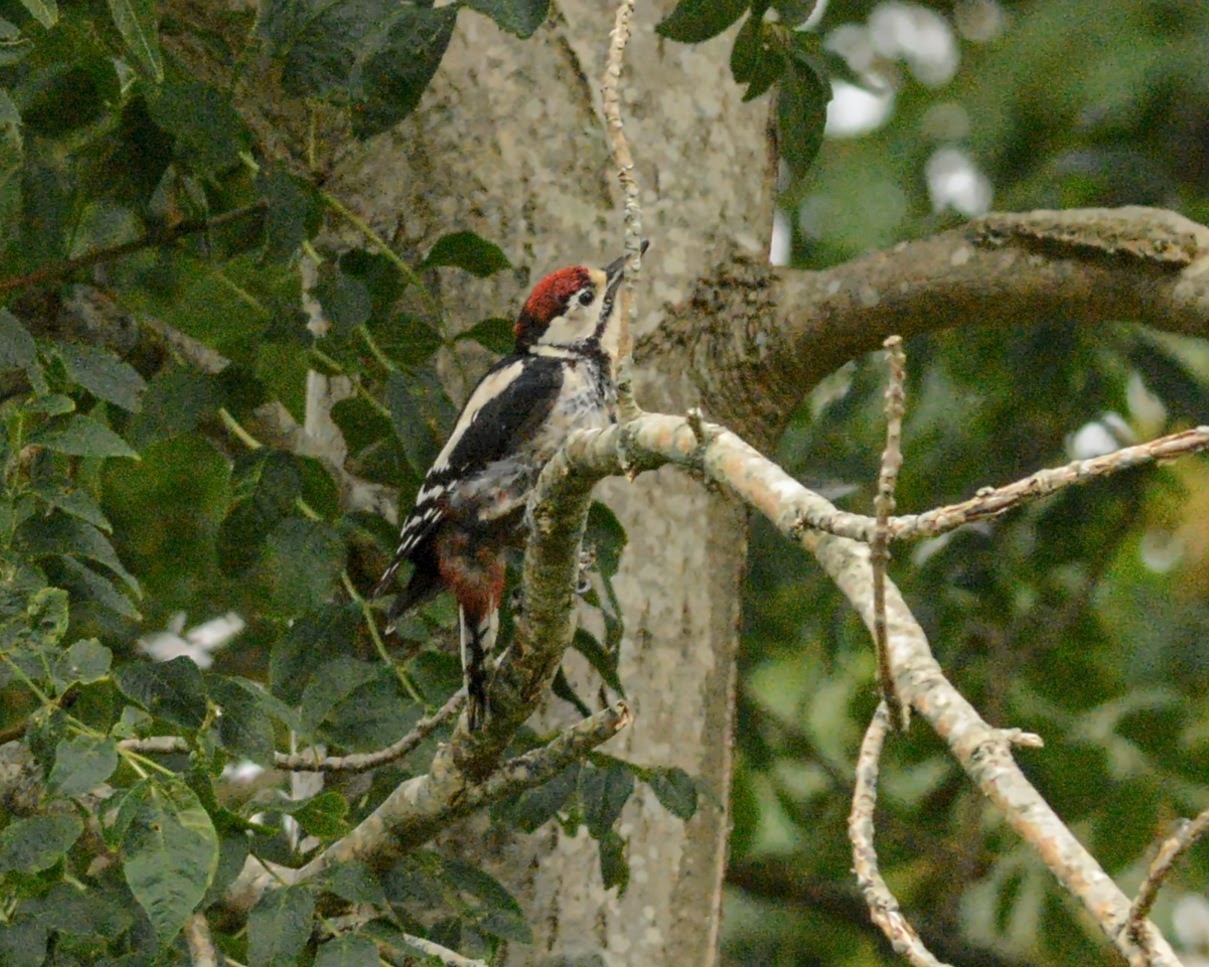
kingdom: Animalia
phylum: Chordata
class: Aves
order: Piciformes
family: Picidae
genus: Dendrocopos
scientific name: Dendrocopos major
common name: Great spotted woodpecker
